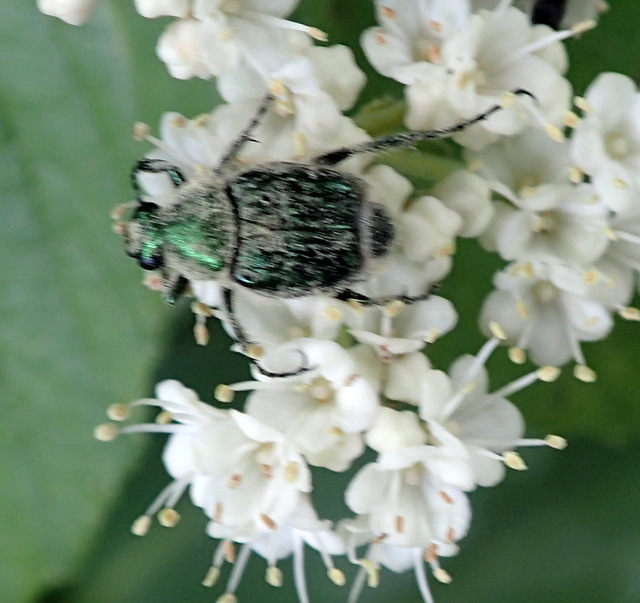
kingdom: Animalia
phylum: Arthropoda
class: Insecta
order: Coleoptera
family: Scarabaeidae
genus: Trichiotinus
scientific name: Trichiotinus lunulatus
